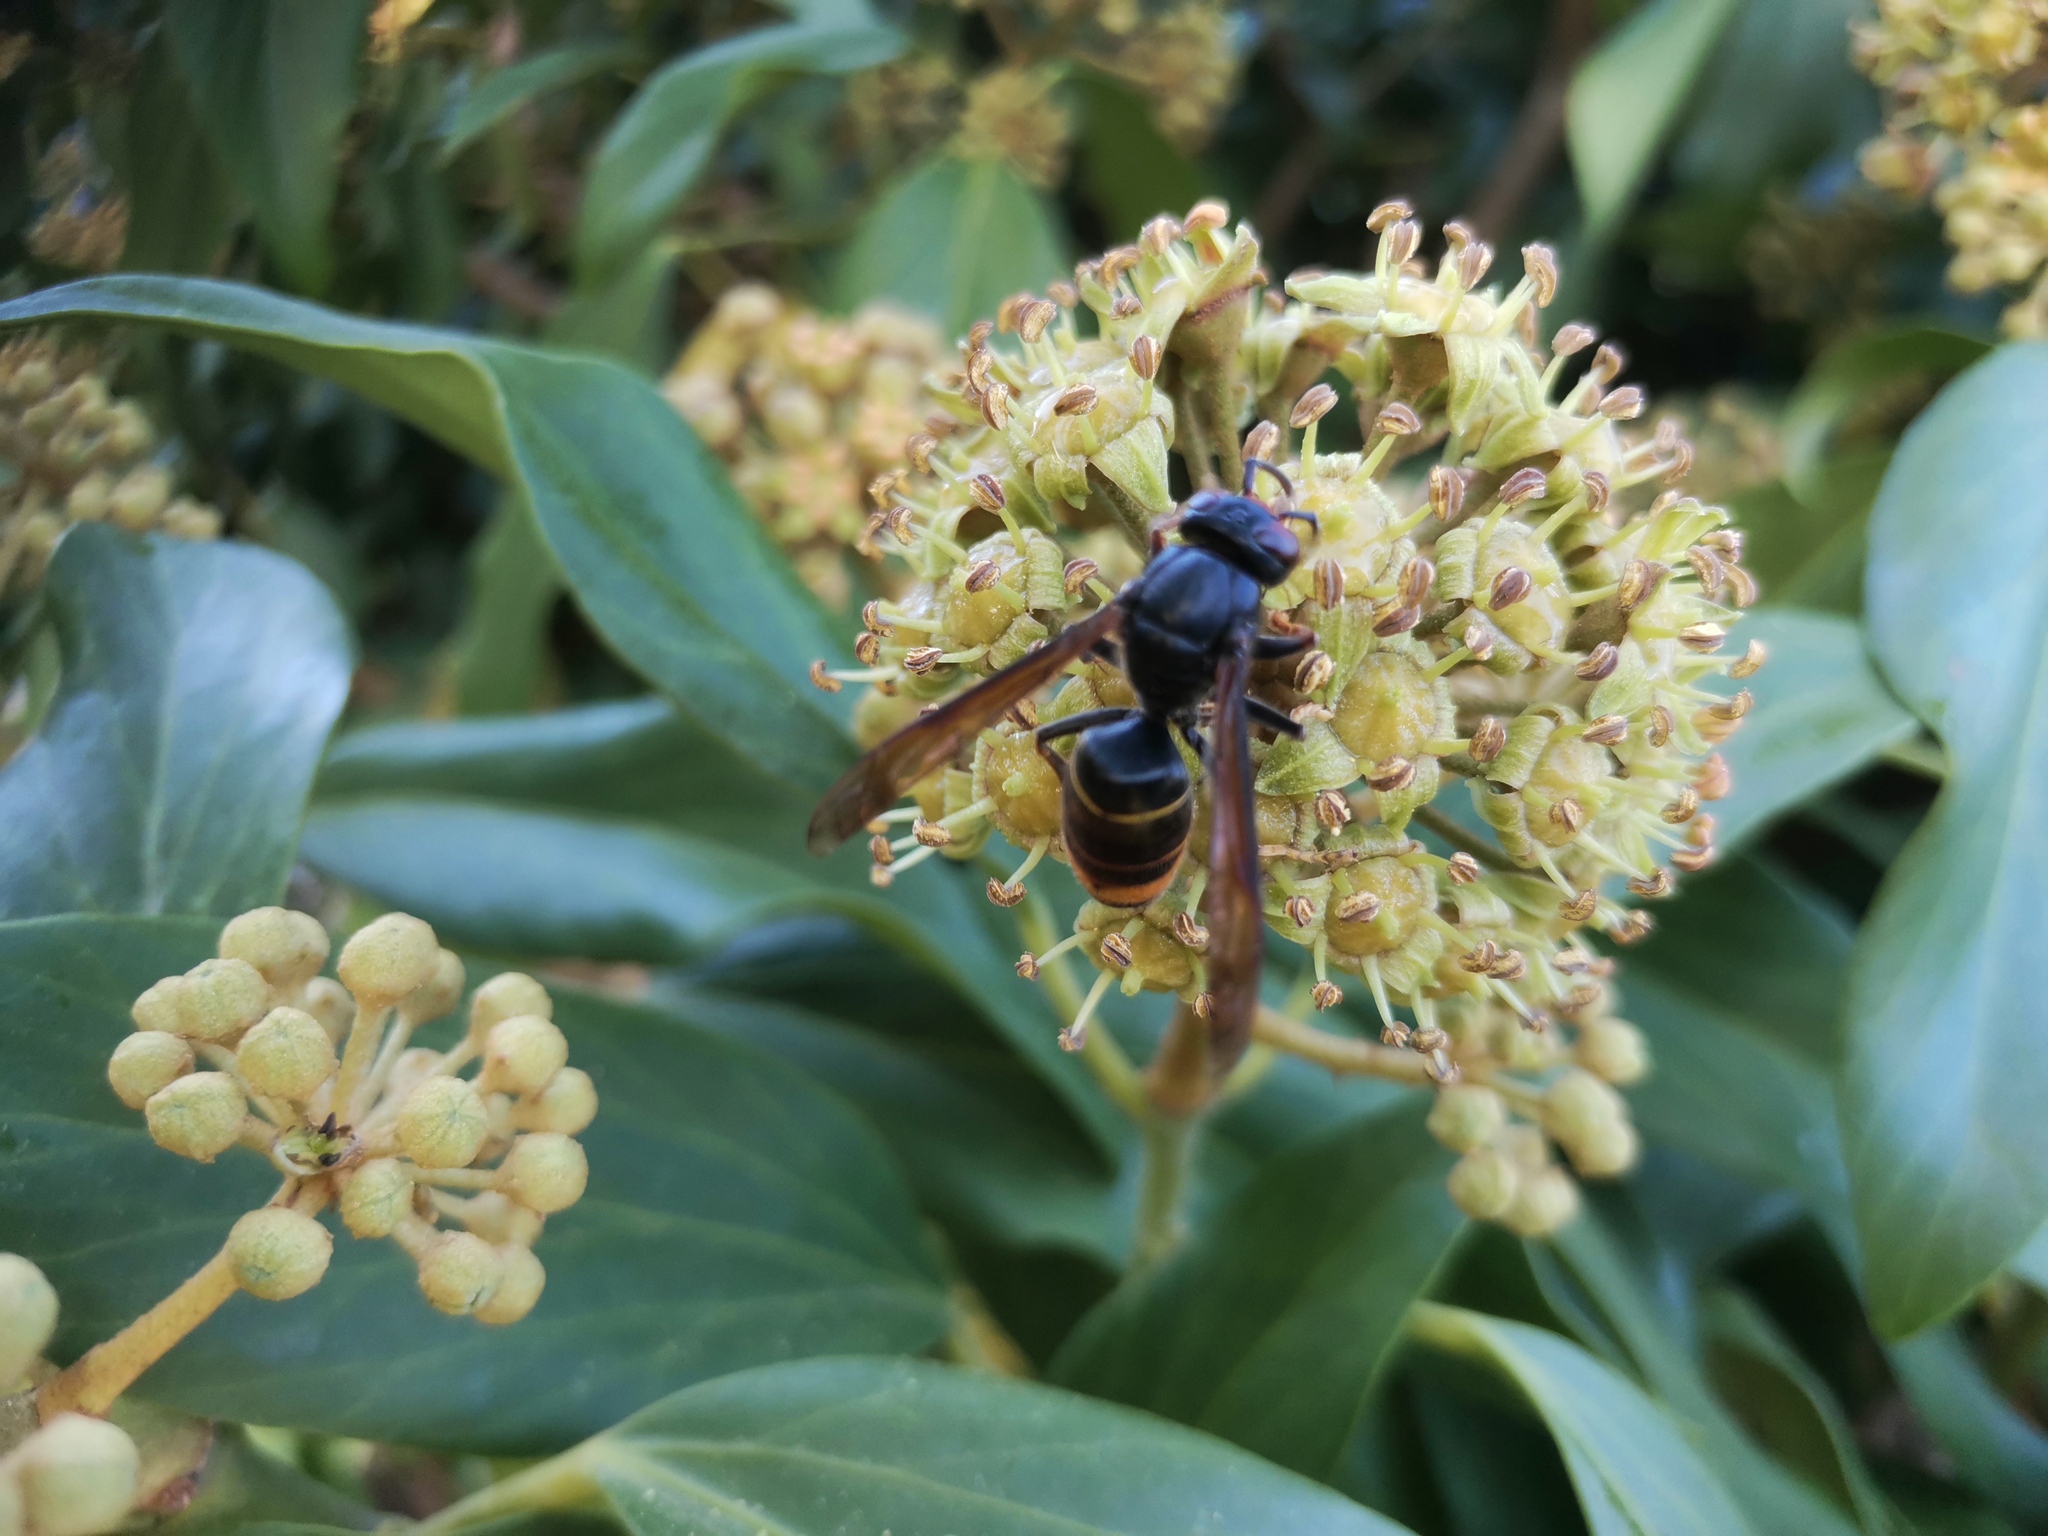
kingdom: Animalia
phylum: Arthropoda
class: Insecta
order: Hymenoptera
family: Vespidae
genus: Vespa
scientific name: Vespa velutina
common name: Asian hornet
